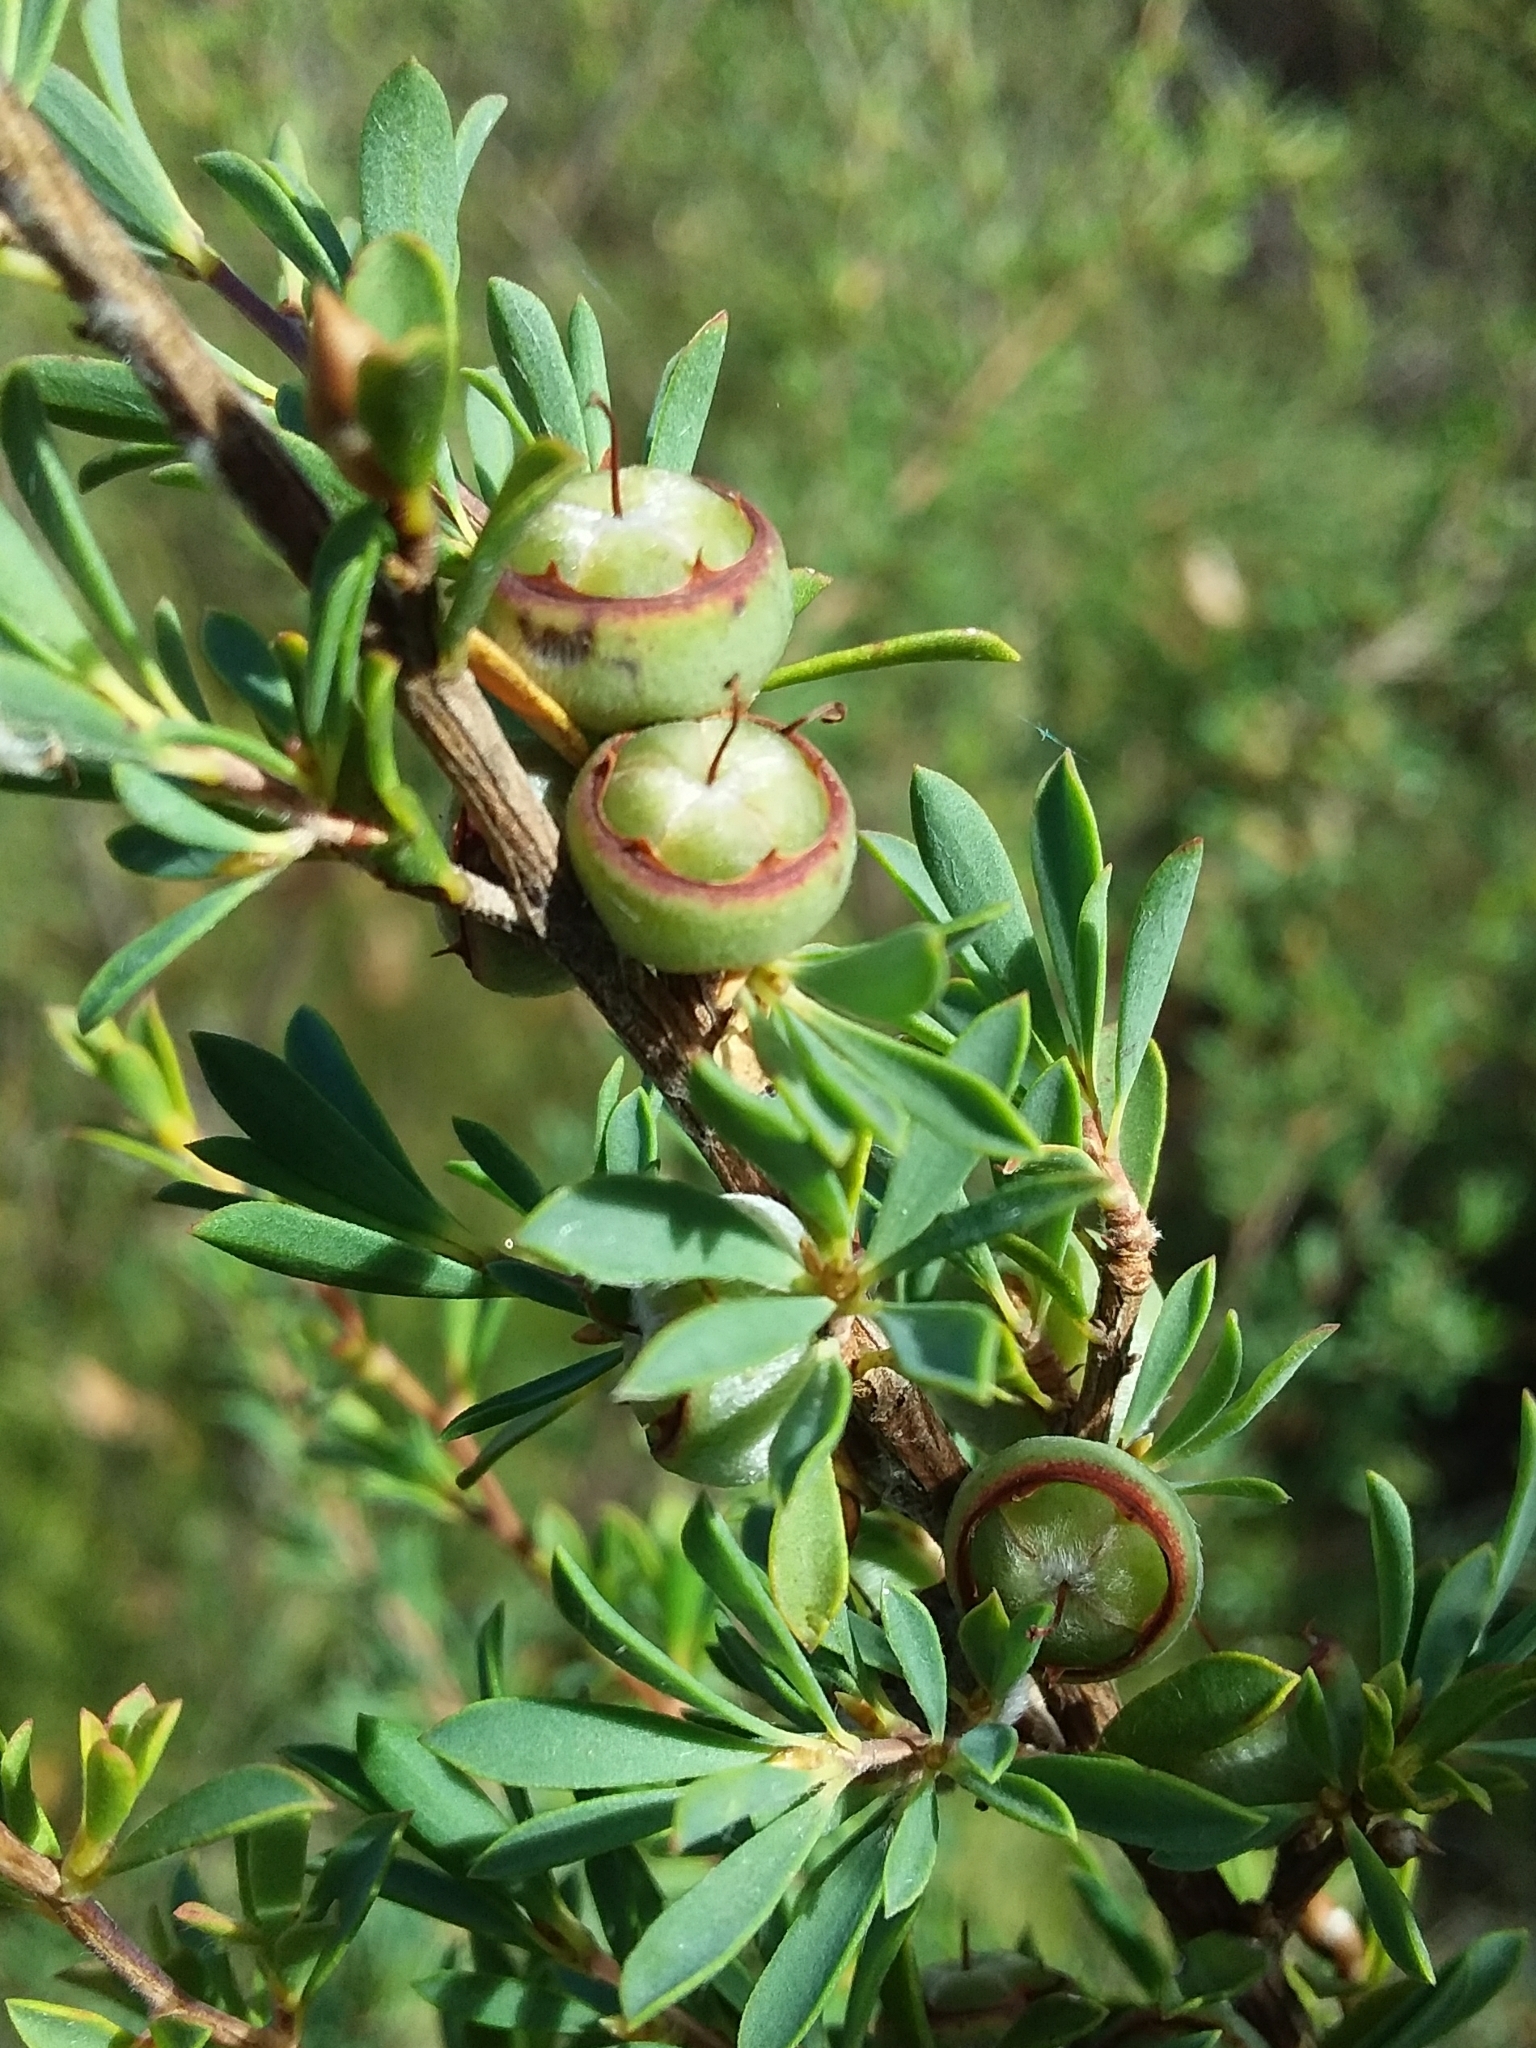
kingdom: Plantae
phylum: Tracheophyta
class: Magnoliopsida
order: Myrtales
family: Myrtaceae
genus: Leptospermum
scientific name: Leptospermum myrsinoides
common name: Heath teatree
